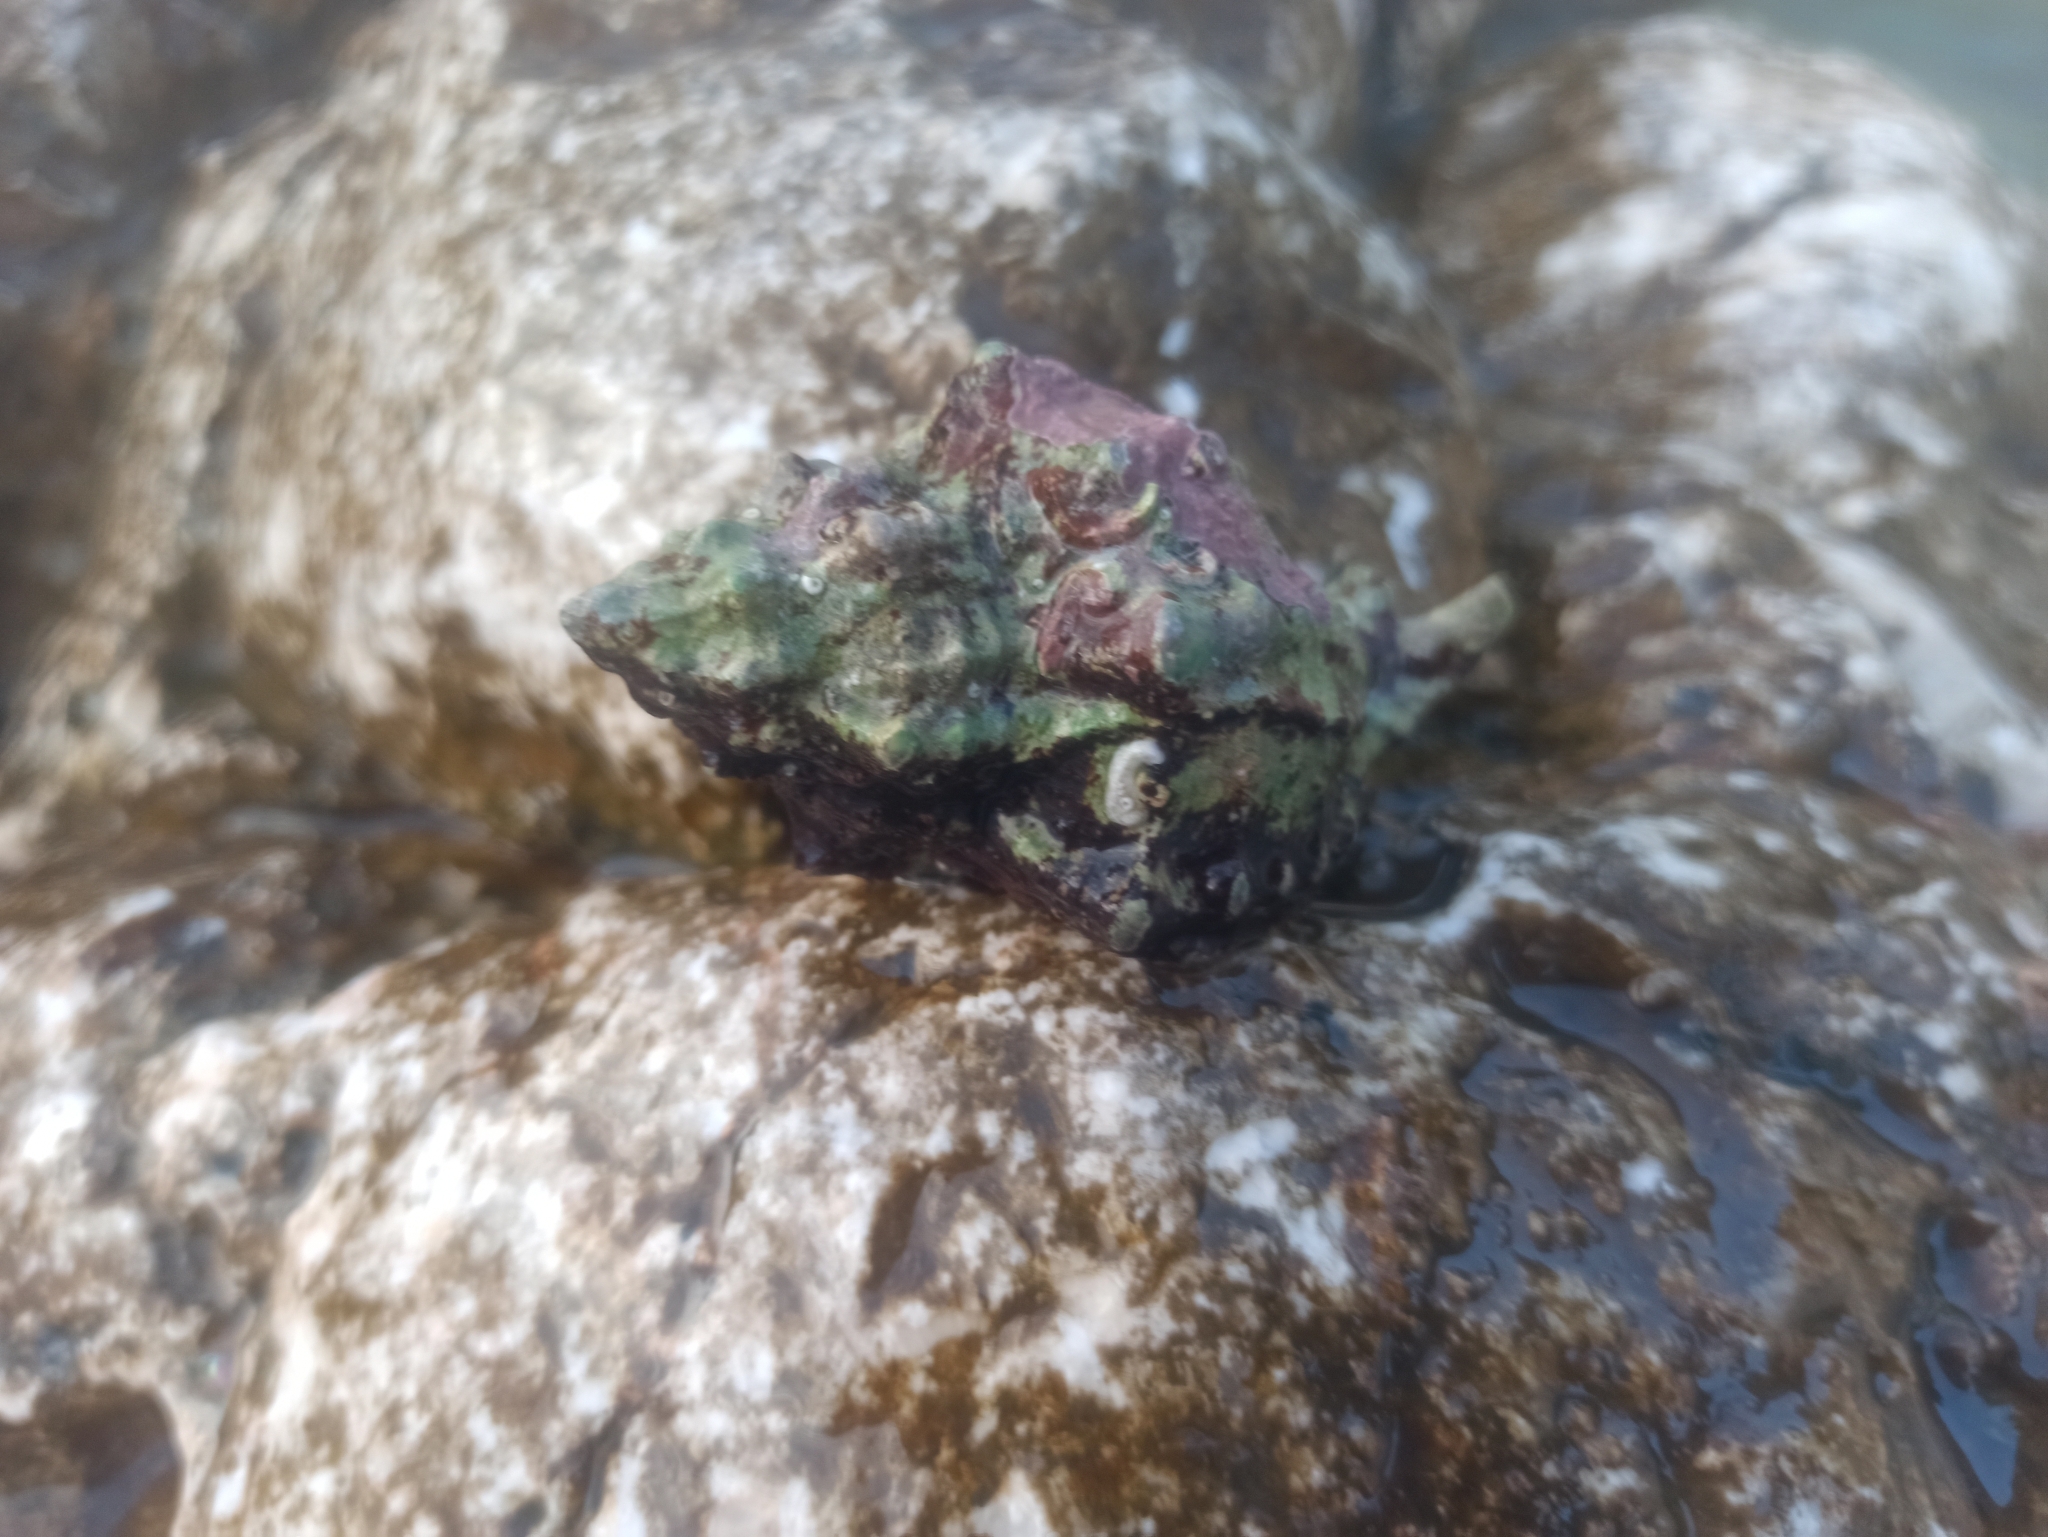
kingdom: Animalia
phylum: Mollusca
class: Gastropoda
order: Neogastropoda
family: Muricidae
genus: Hexaplex
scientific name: Hexaplex trunculus
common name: Banded dye-murex
